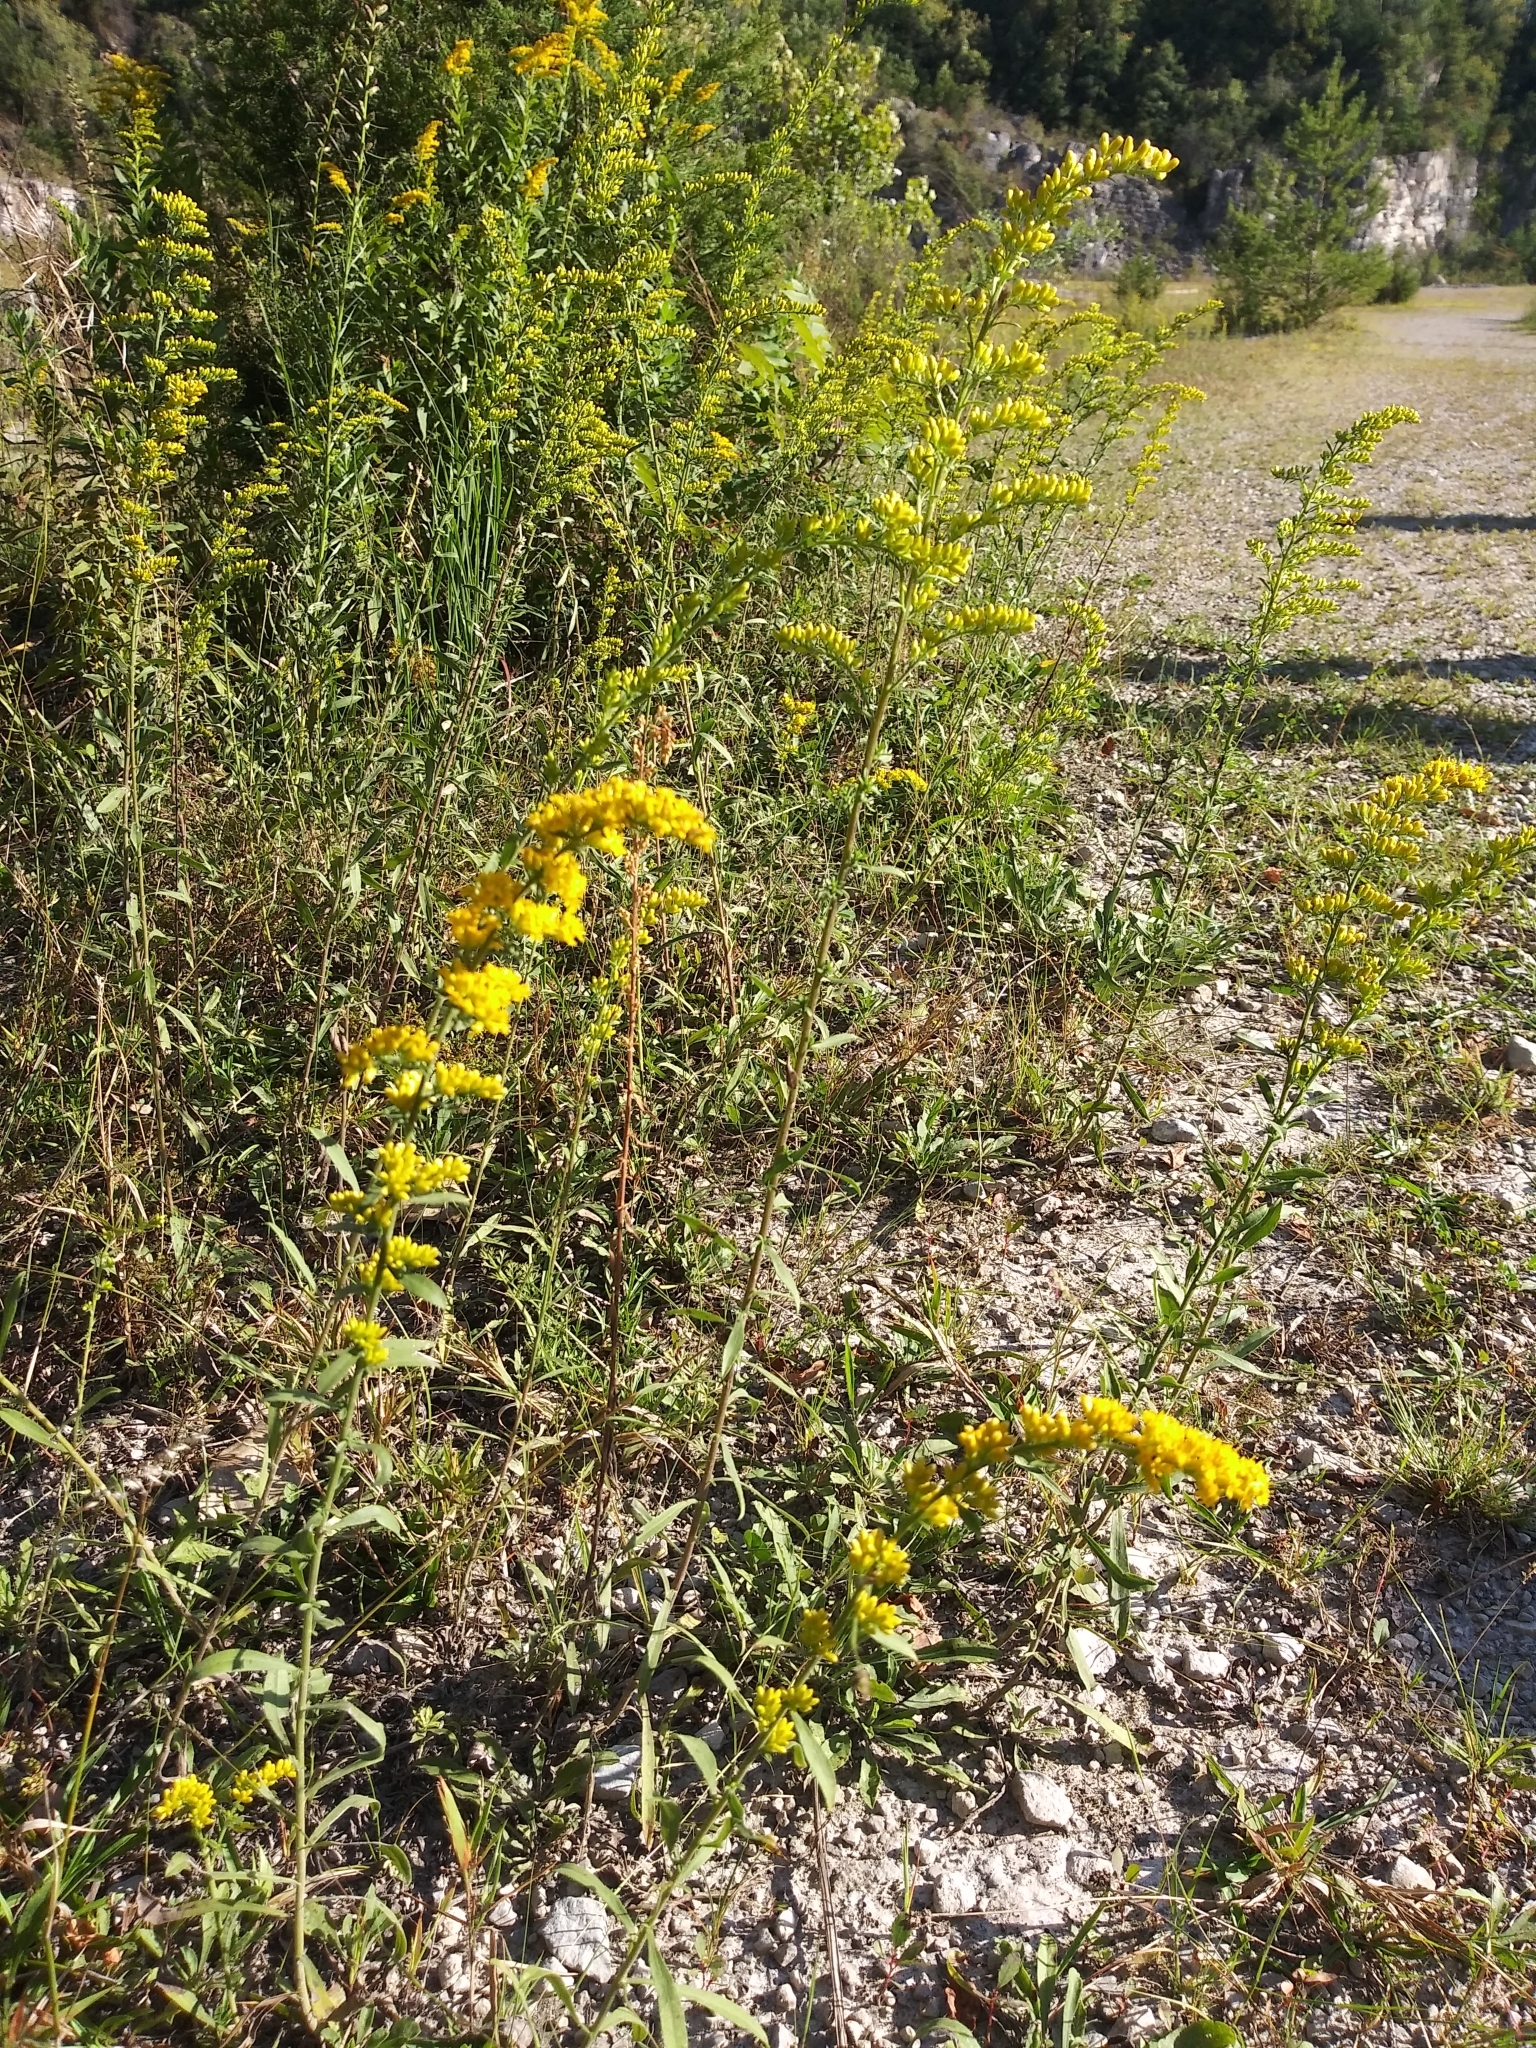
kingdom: Plantae
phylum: Tracheophyta
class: Magnoliopsida
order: Asterales
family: Asteraceae
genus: Solidago
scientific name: Solidago nemoralis
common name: Grey goldenrod
